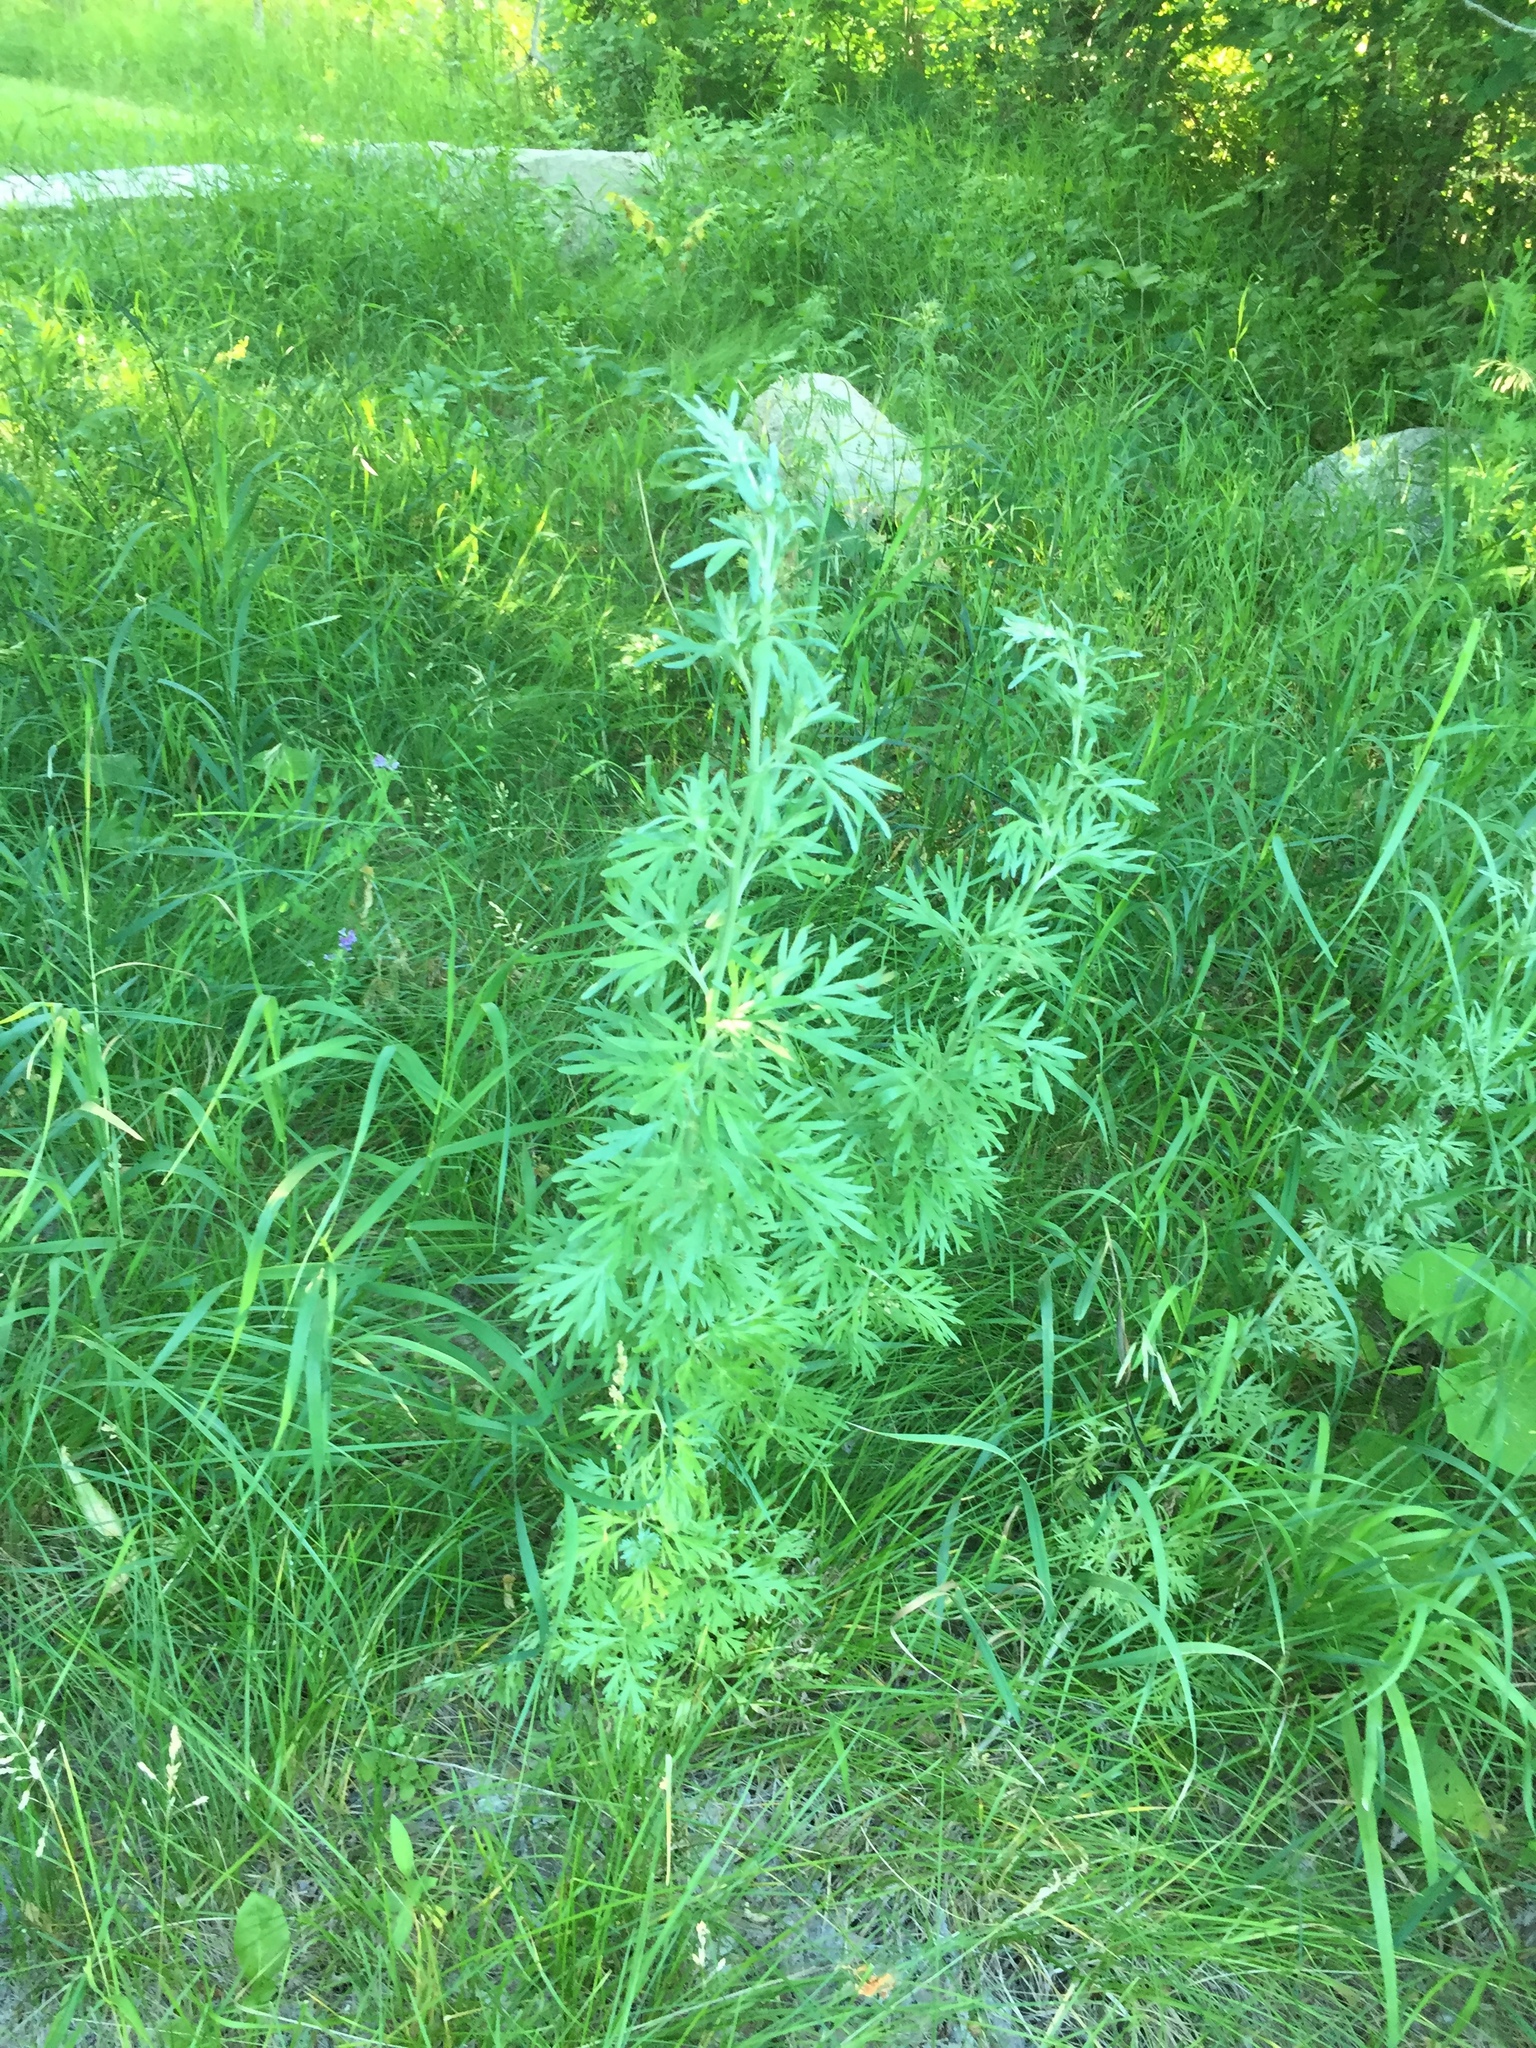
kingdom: Plantae
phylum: Tracheophyta
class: Magnoliopsida
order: Asterales
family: Asteraceae
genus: Artemisia
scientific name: Artemisia absinthium
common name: Wormwood
